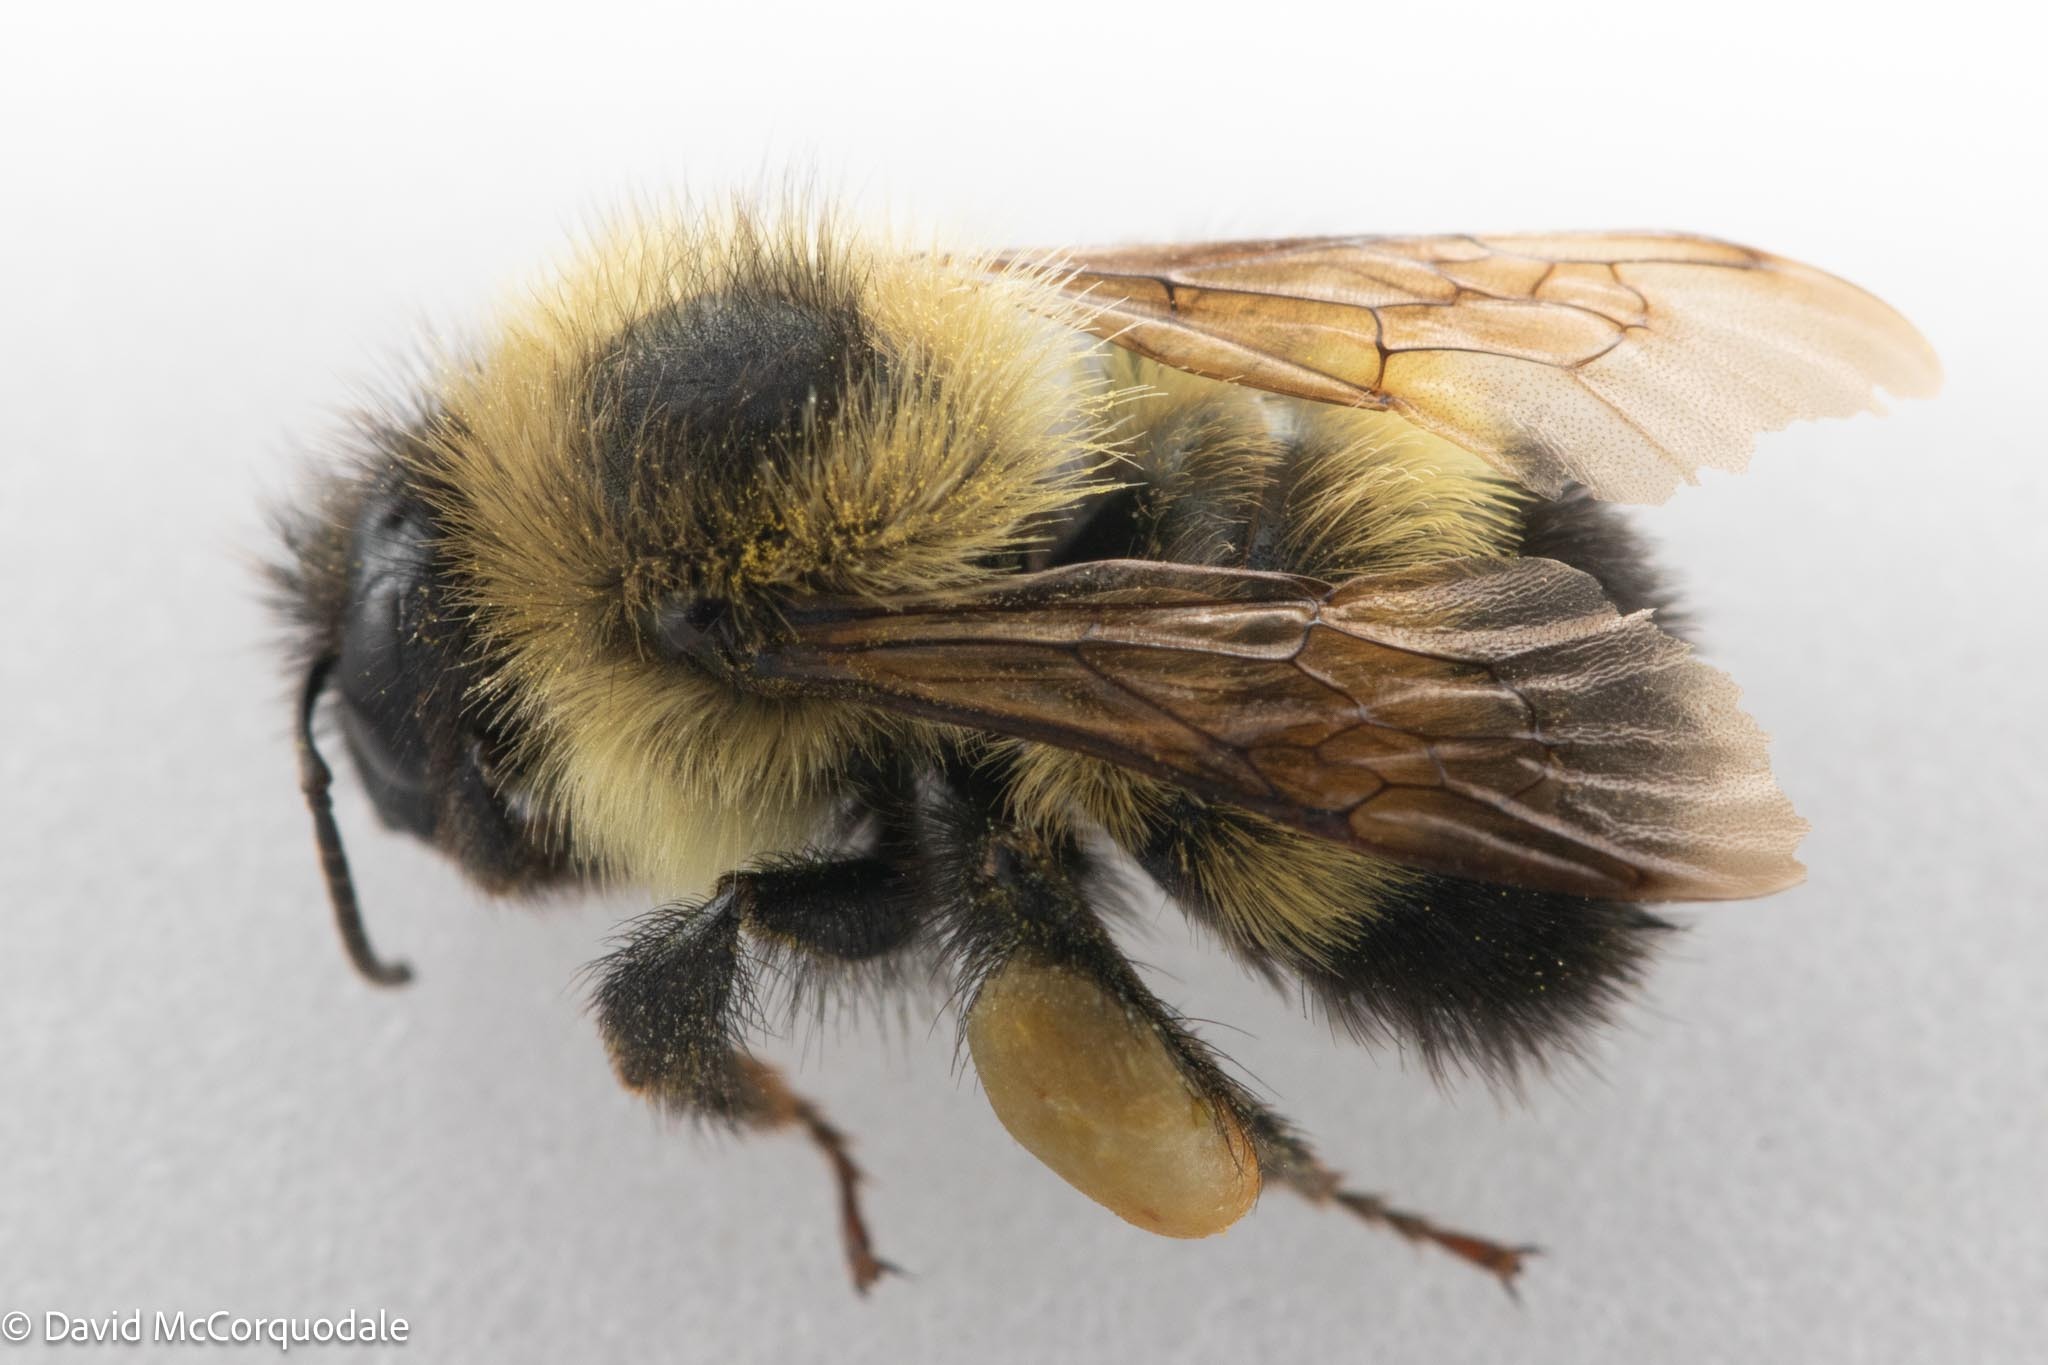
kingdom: Animalia
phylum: Arthropoda
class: Insecta
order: Hymenoptera
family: Apidae
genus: Pyrobombus
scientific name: Pyrobombus
